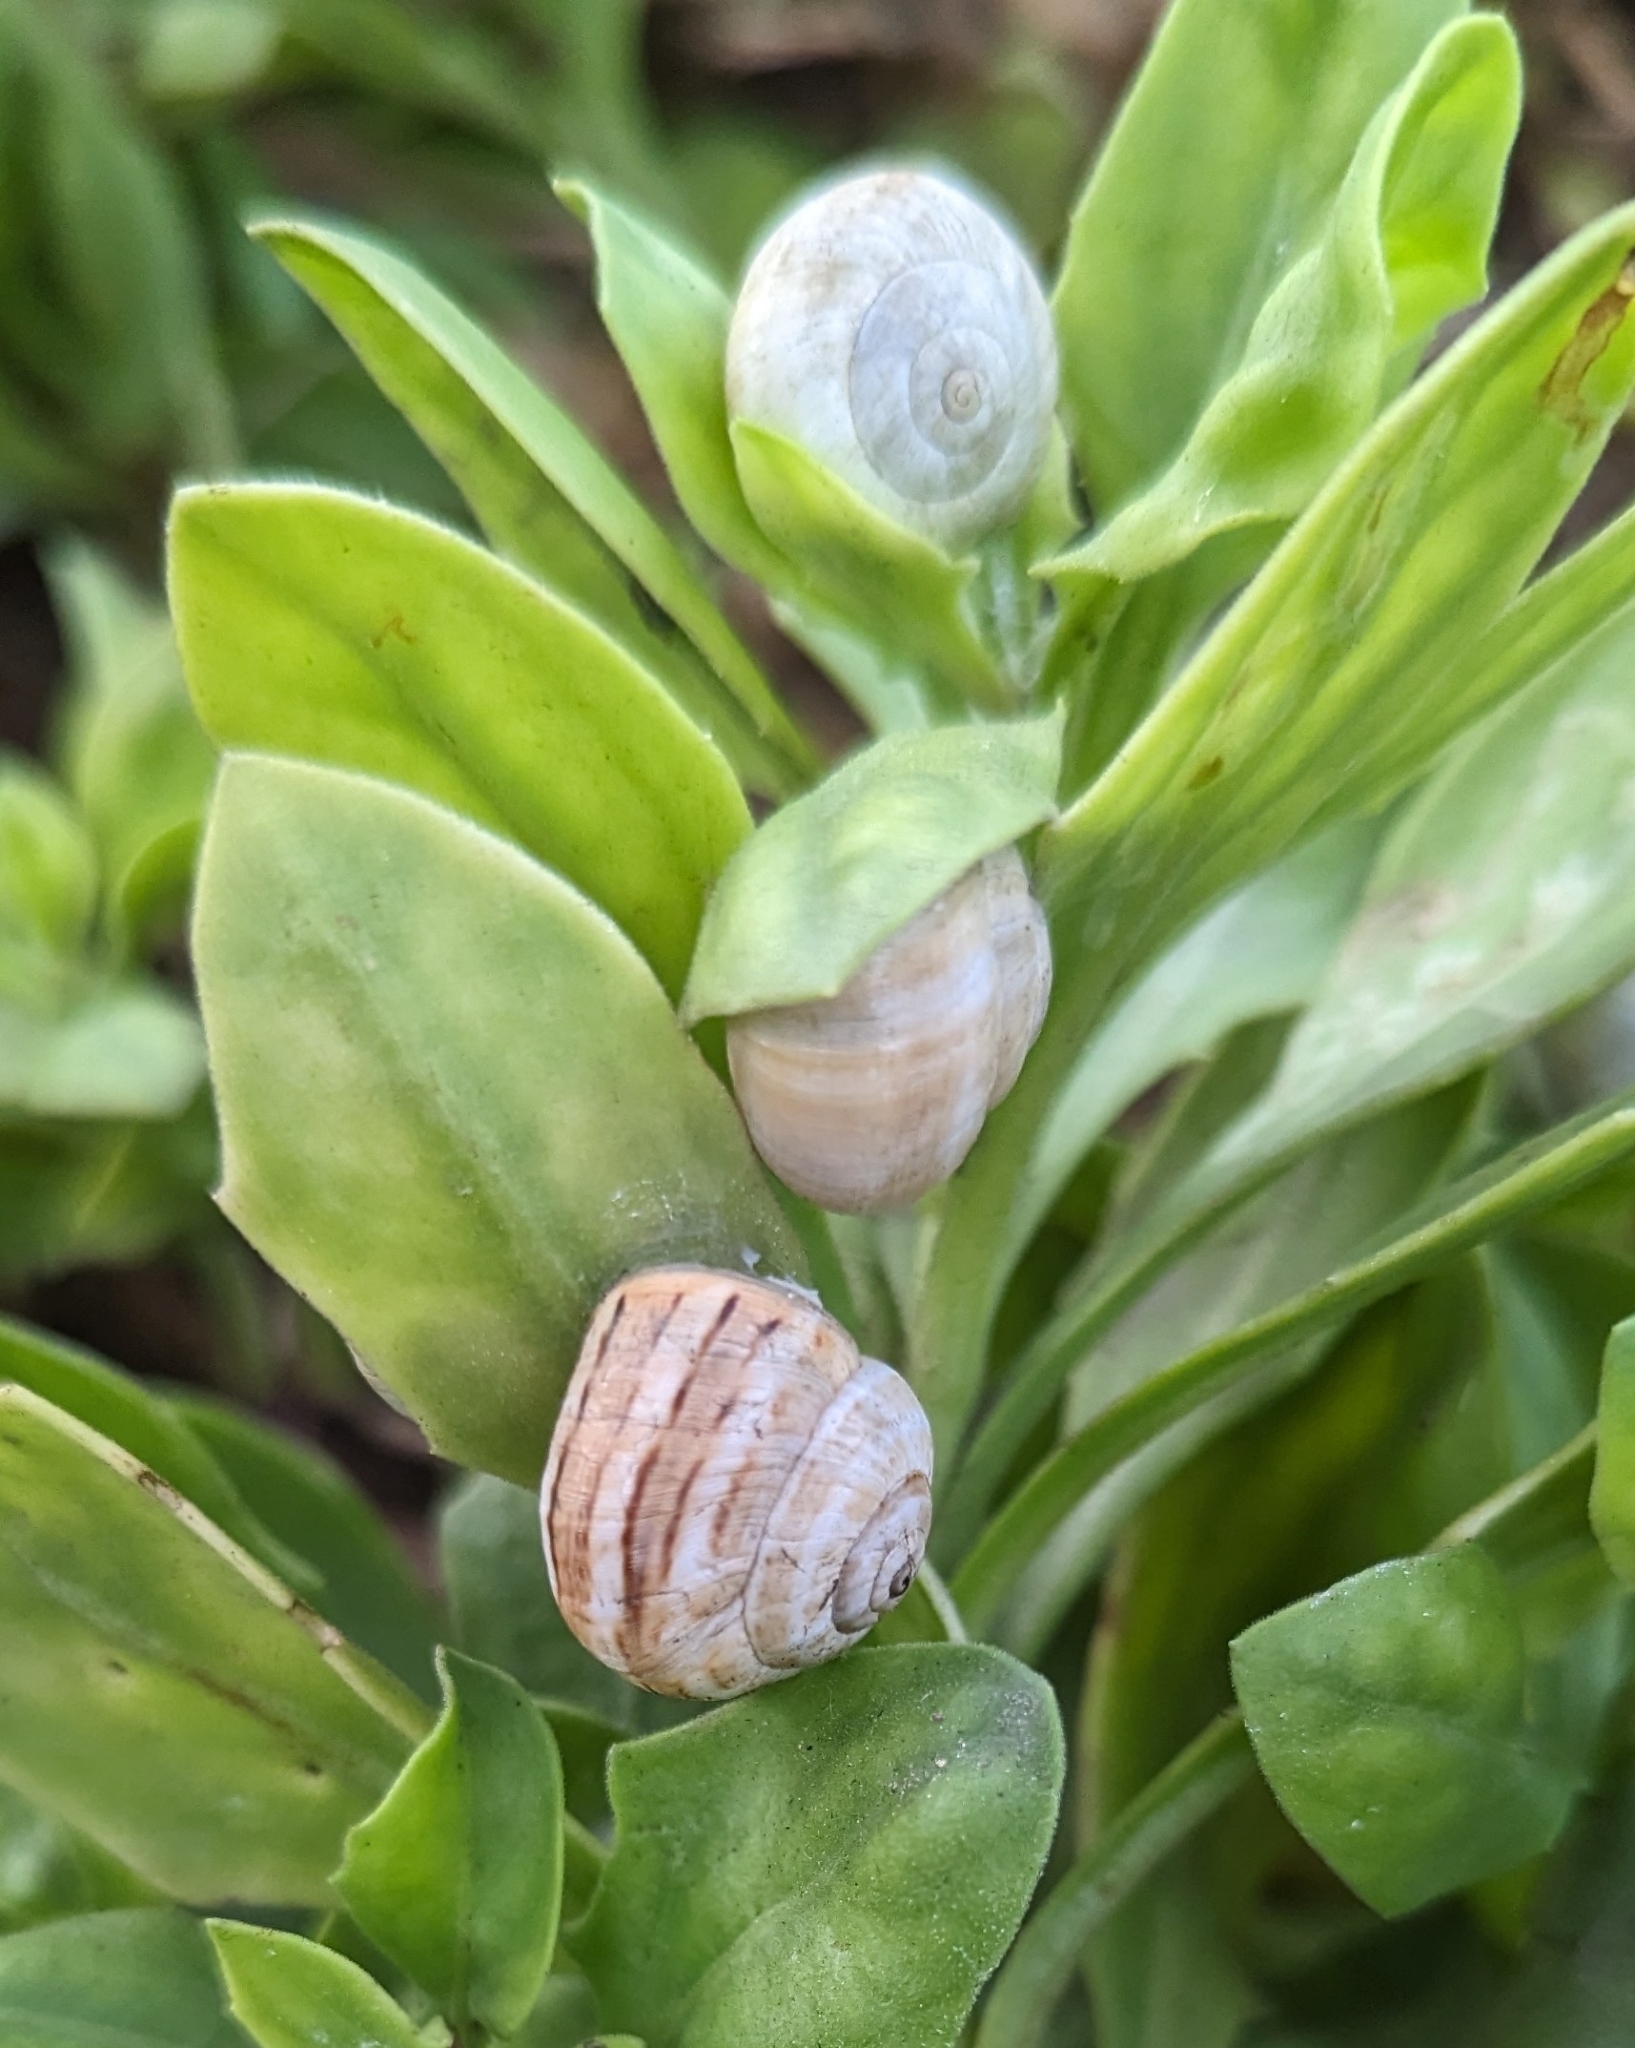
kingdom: Animalia
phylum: Mollusca
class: Gastropoda
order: Stylommatophora
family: Helicidae
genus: Theba
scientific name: Theba pisana
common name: White snail
